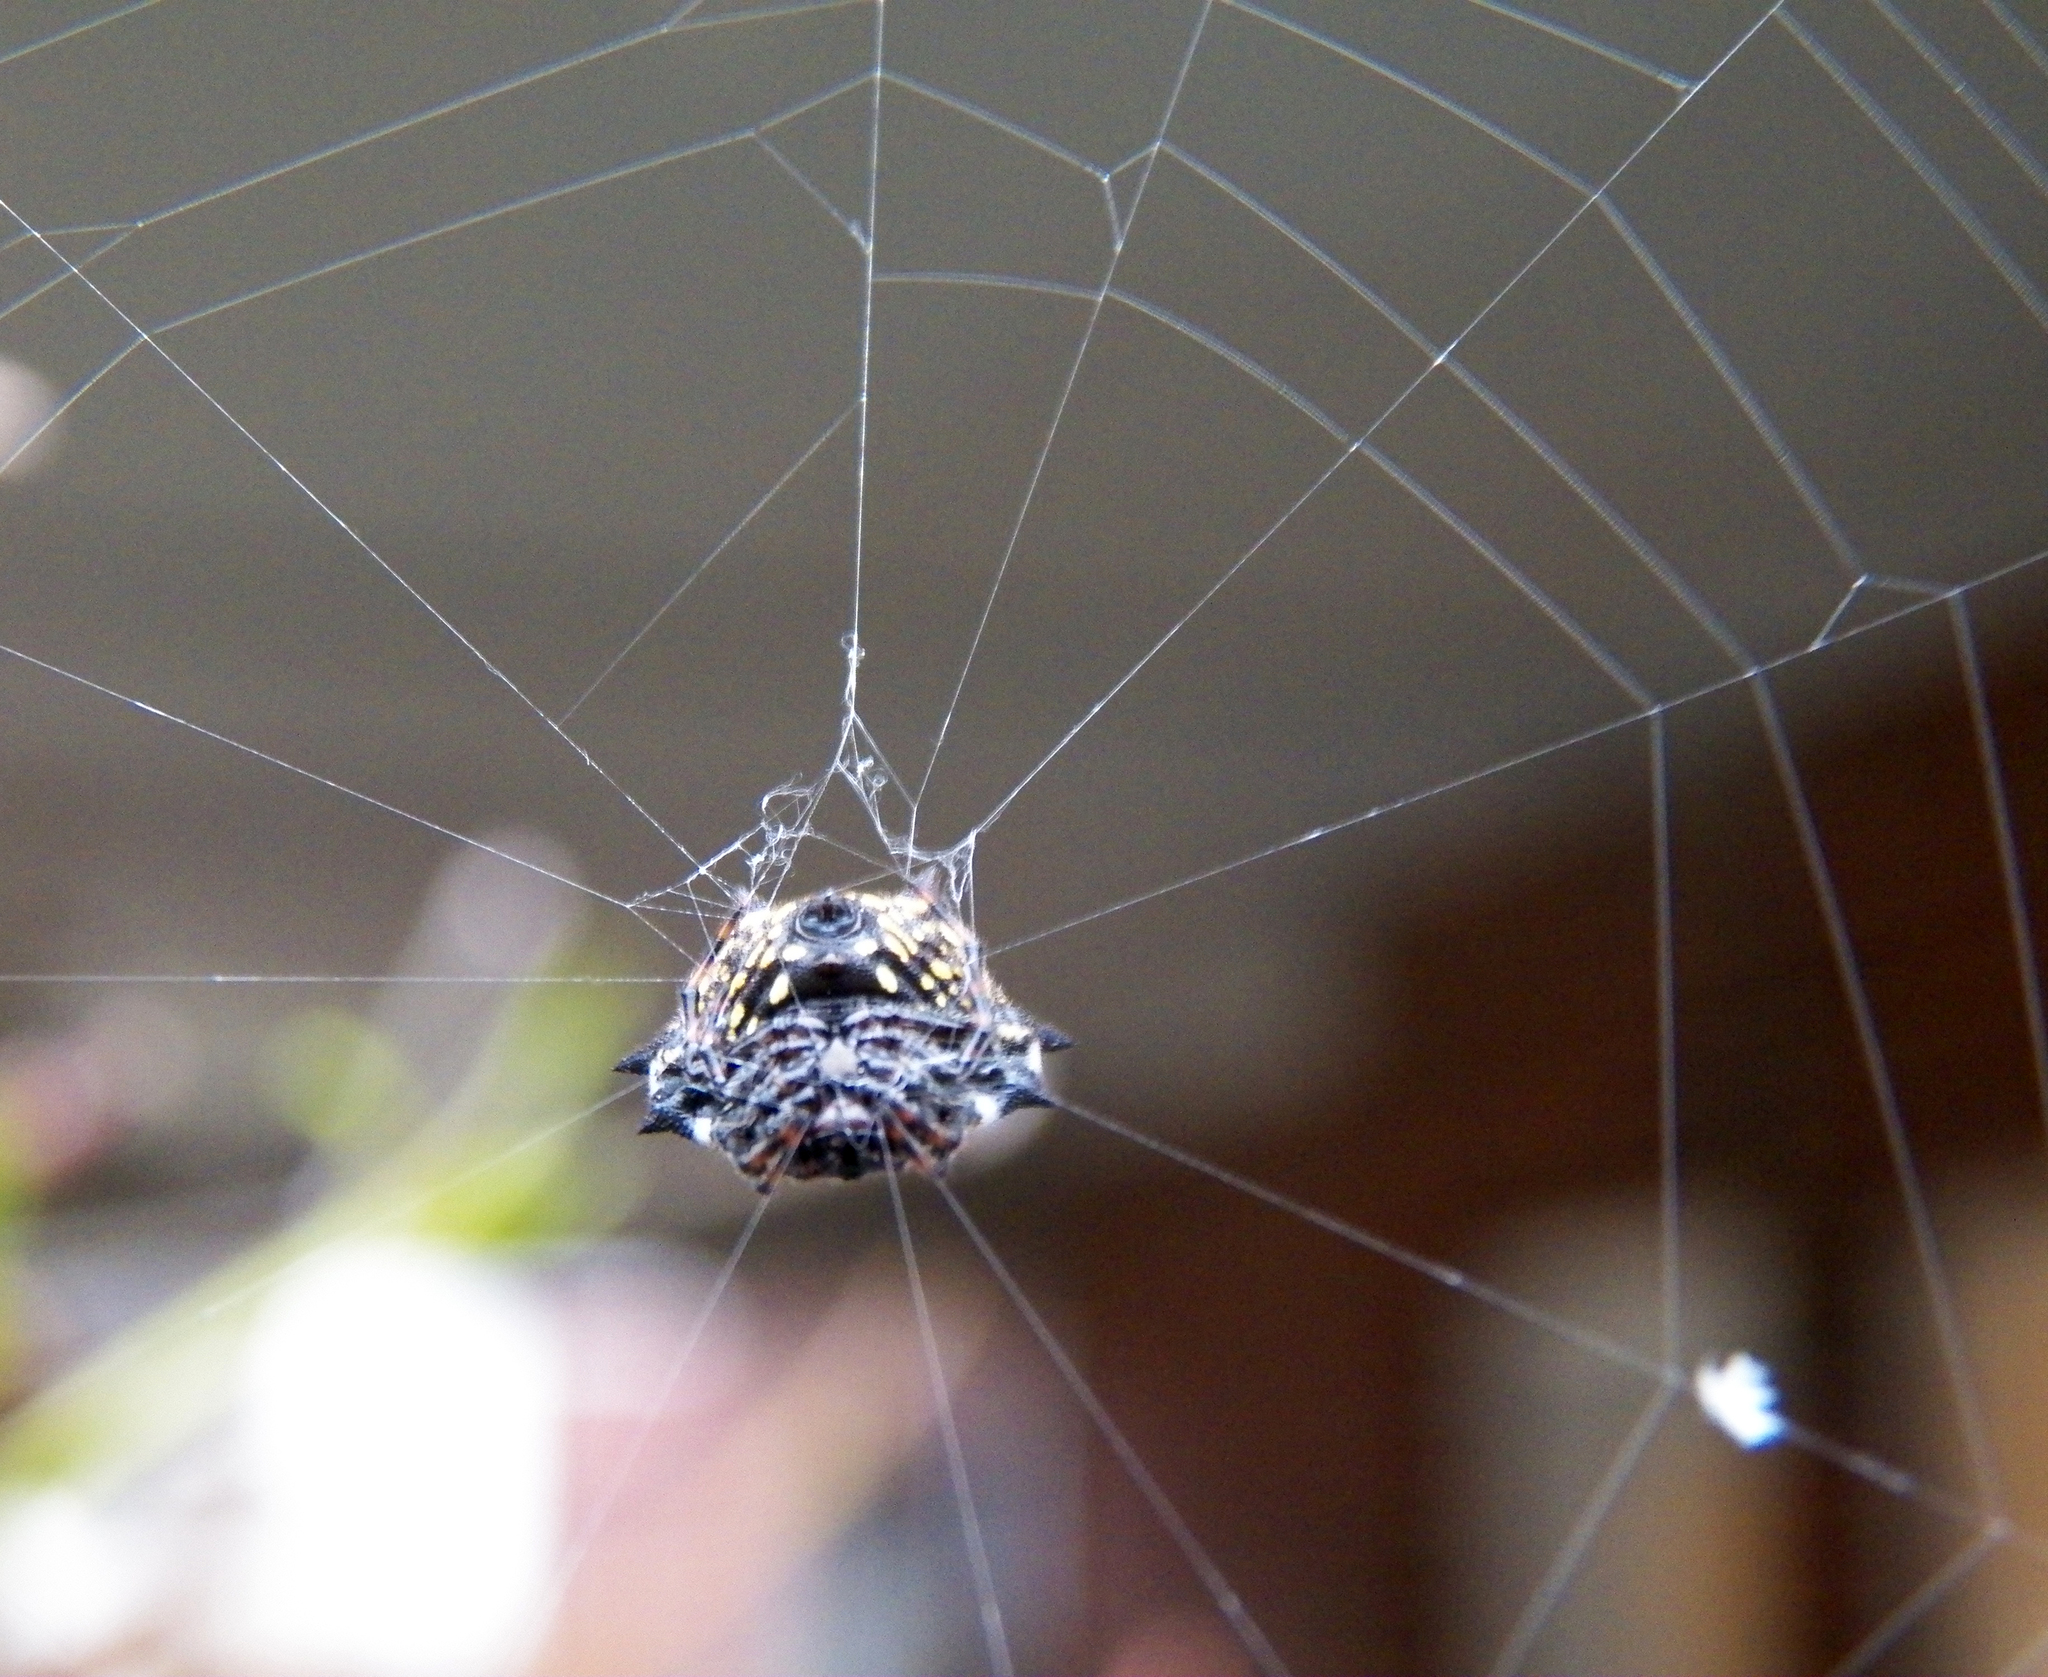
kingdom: Animalia
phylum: Arthropoda
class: Arachnida
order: Araneae
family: Araneidae
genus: Gasteracantha
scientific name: Gasteracantha cancriformis
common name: Orb weavers
